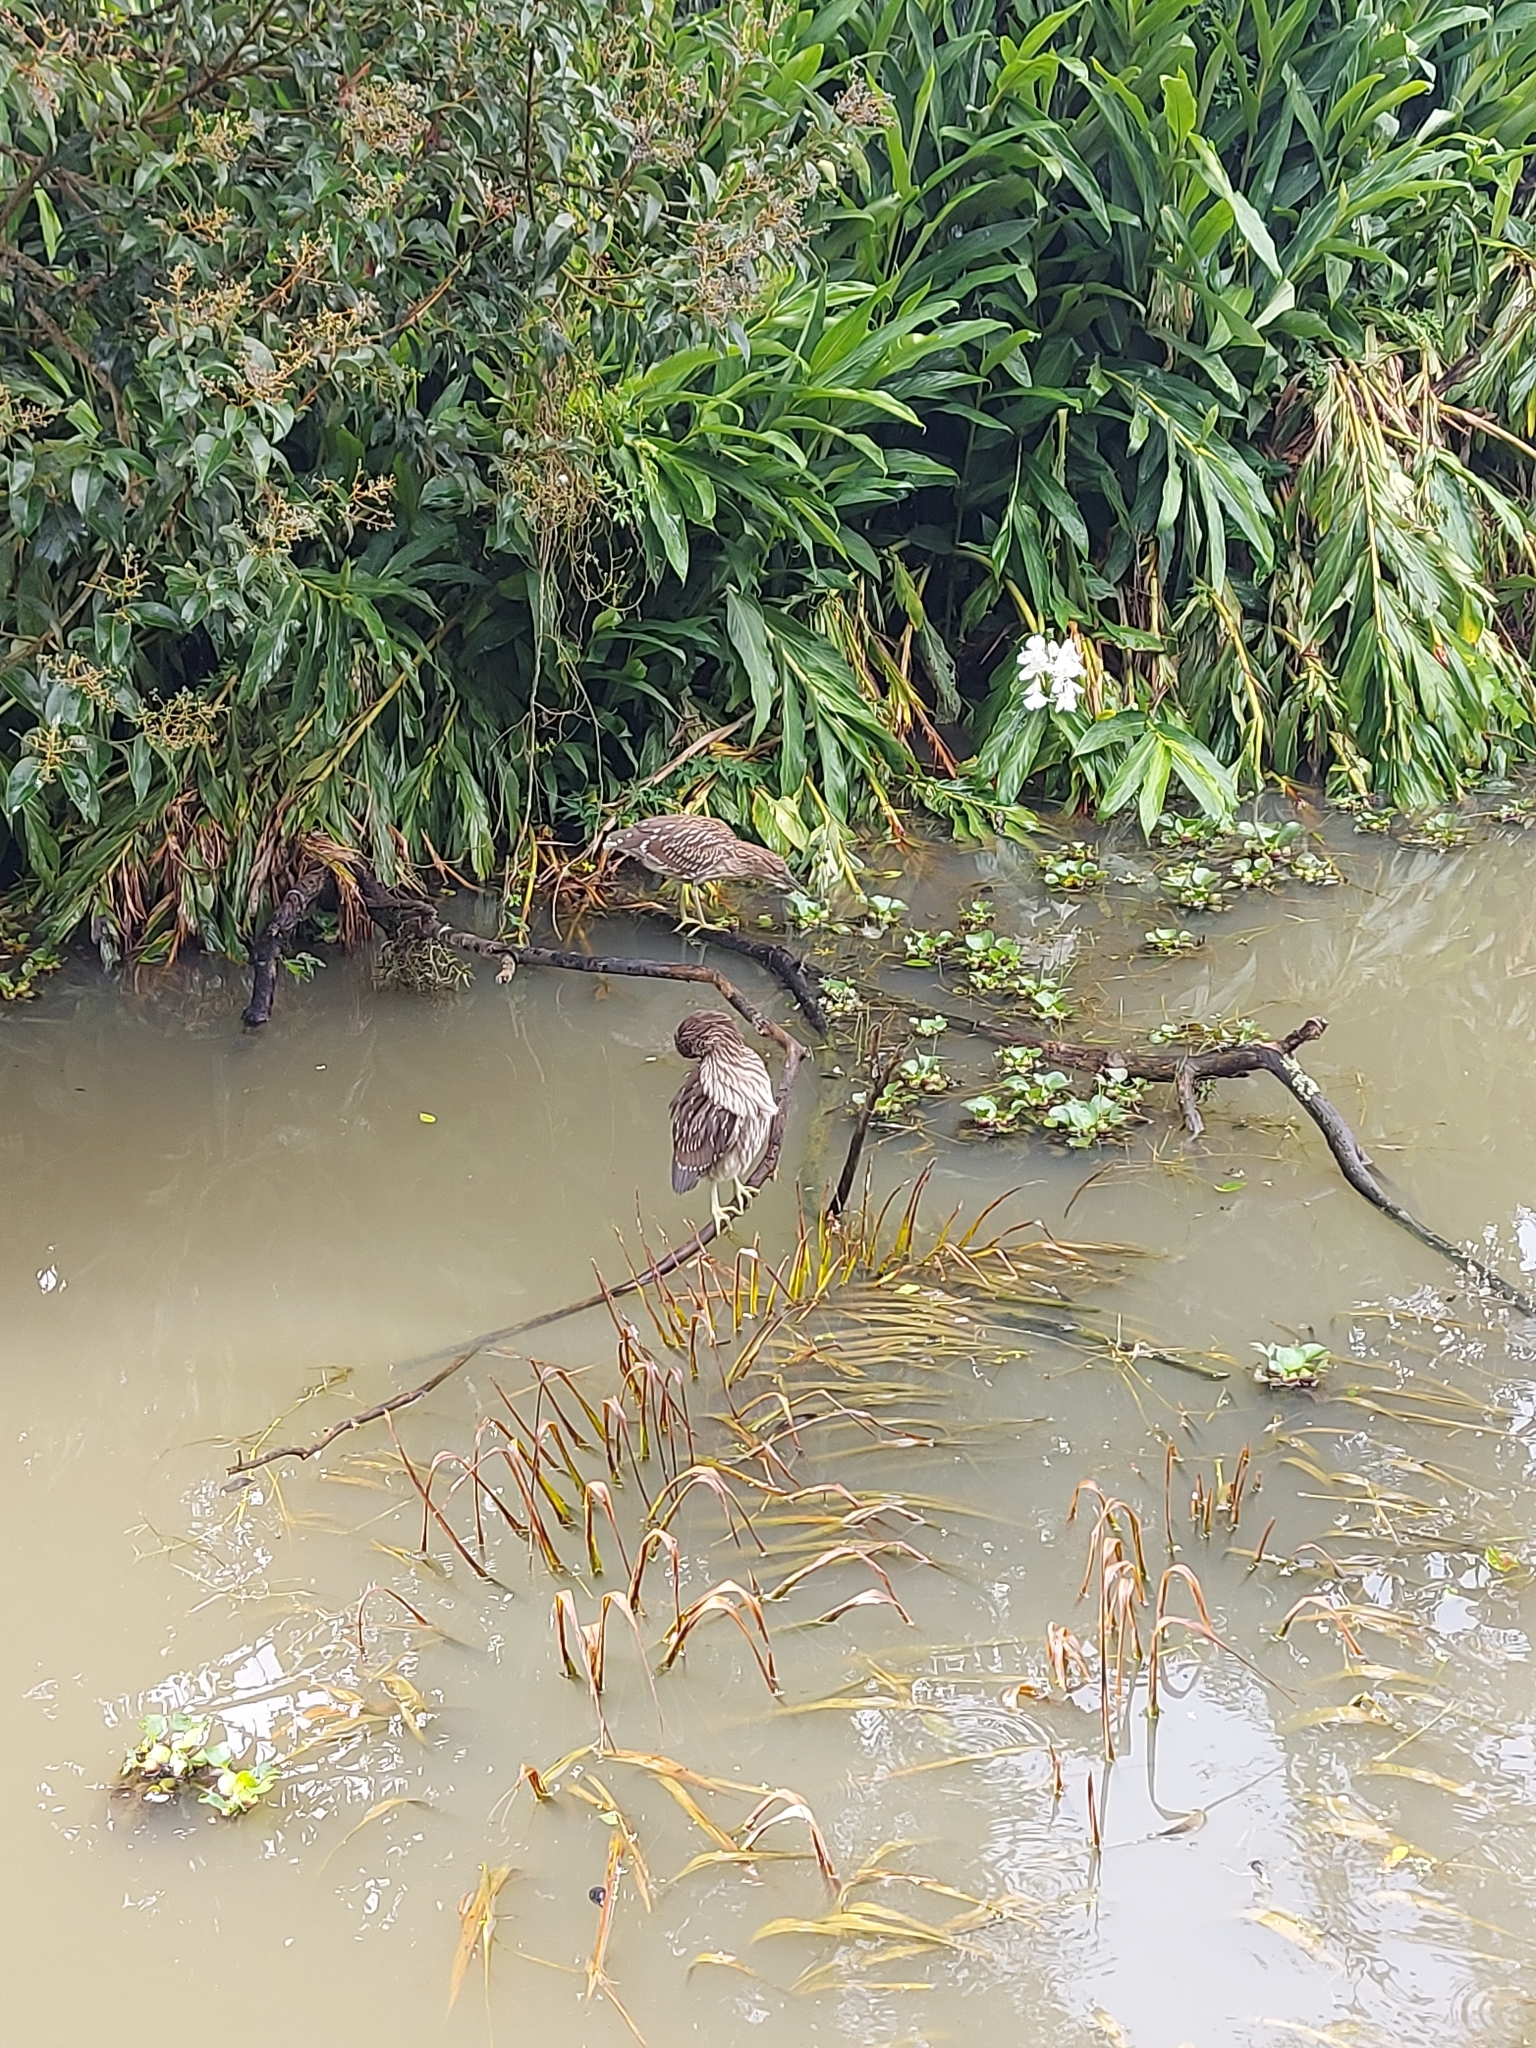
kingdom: Animalia
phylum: Chordata
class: Aves
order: Pelecaniformes
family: Ardeidae
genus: Nycticorax
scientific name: Nycticorax nycticorax
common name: Black-crowned night heron
